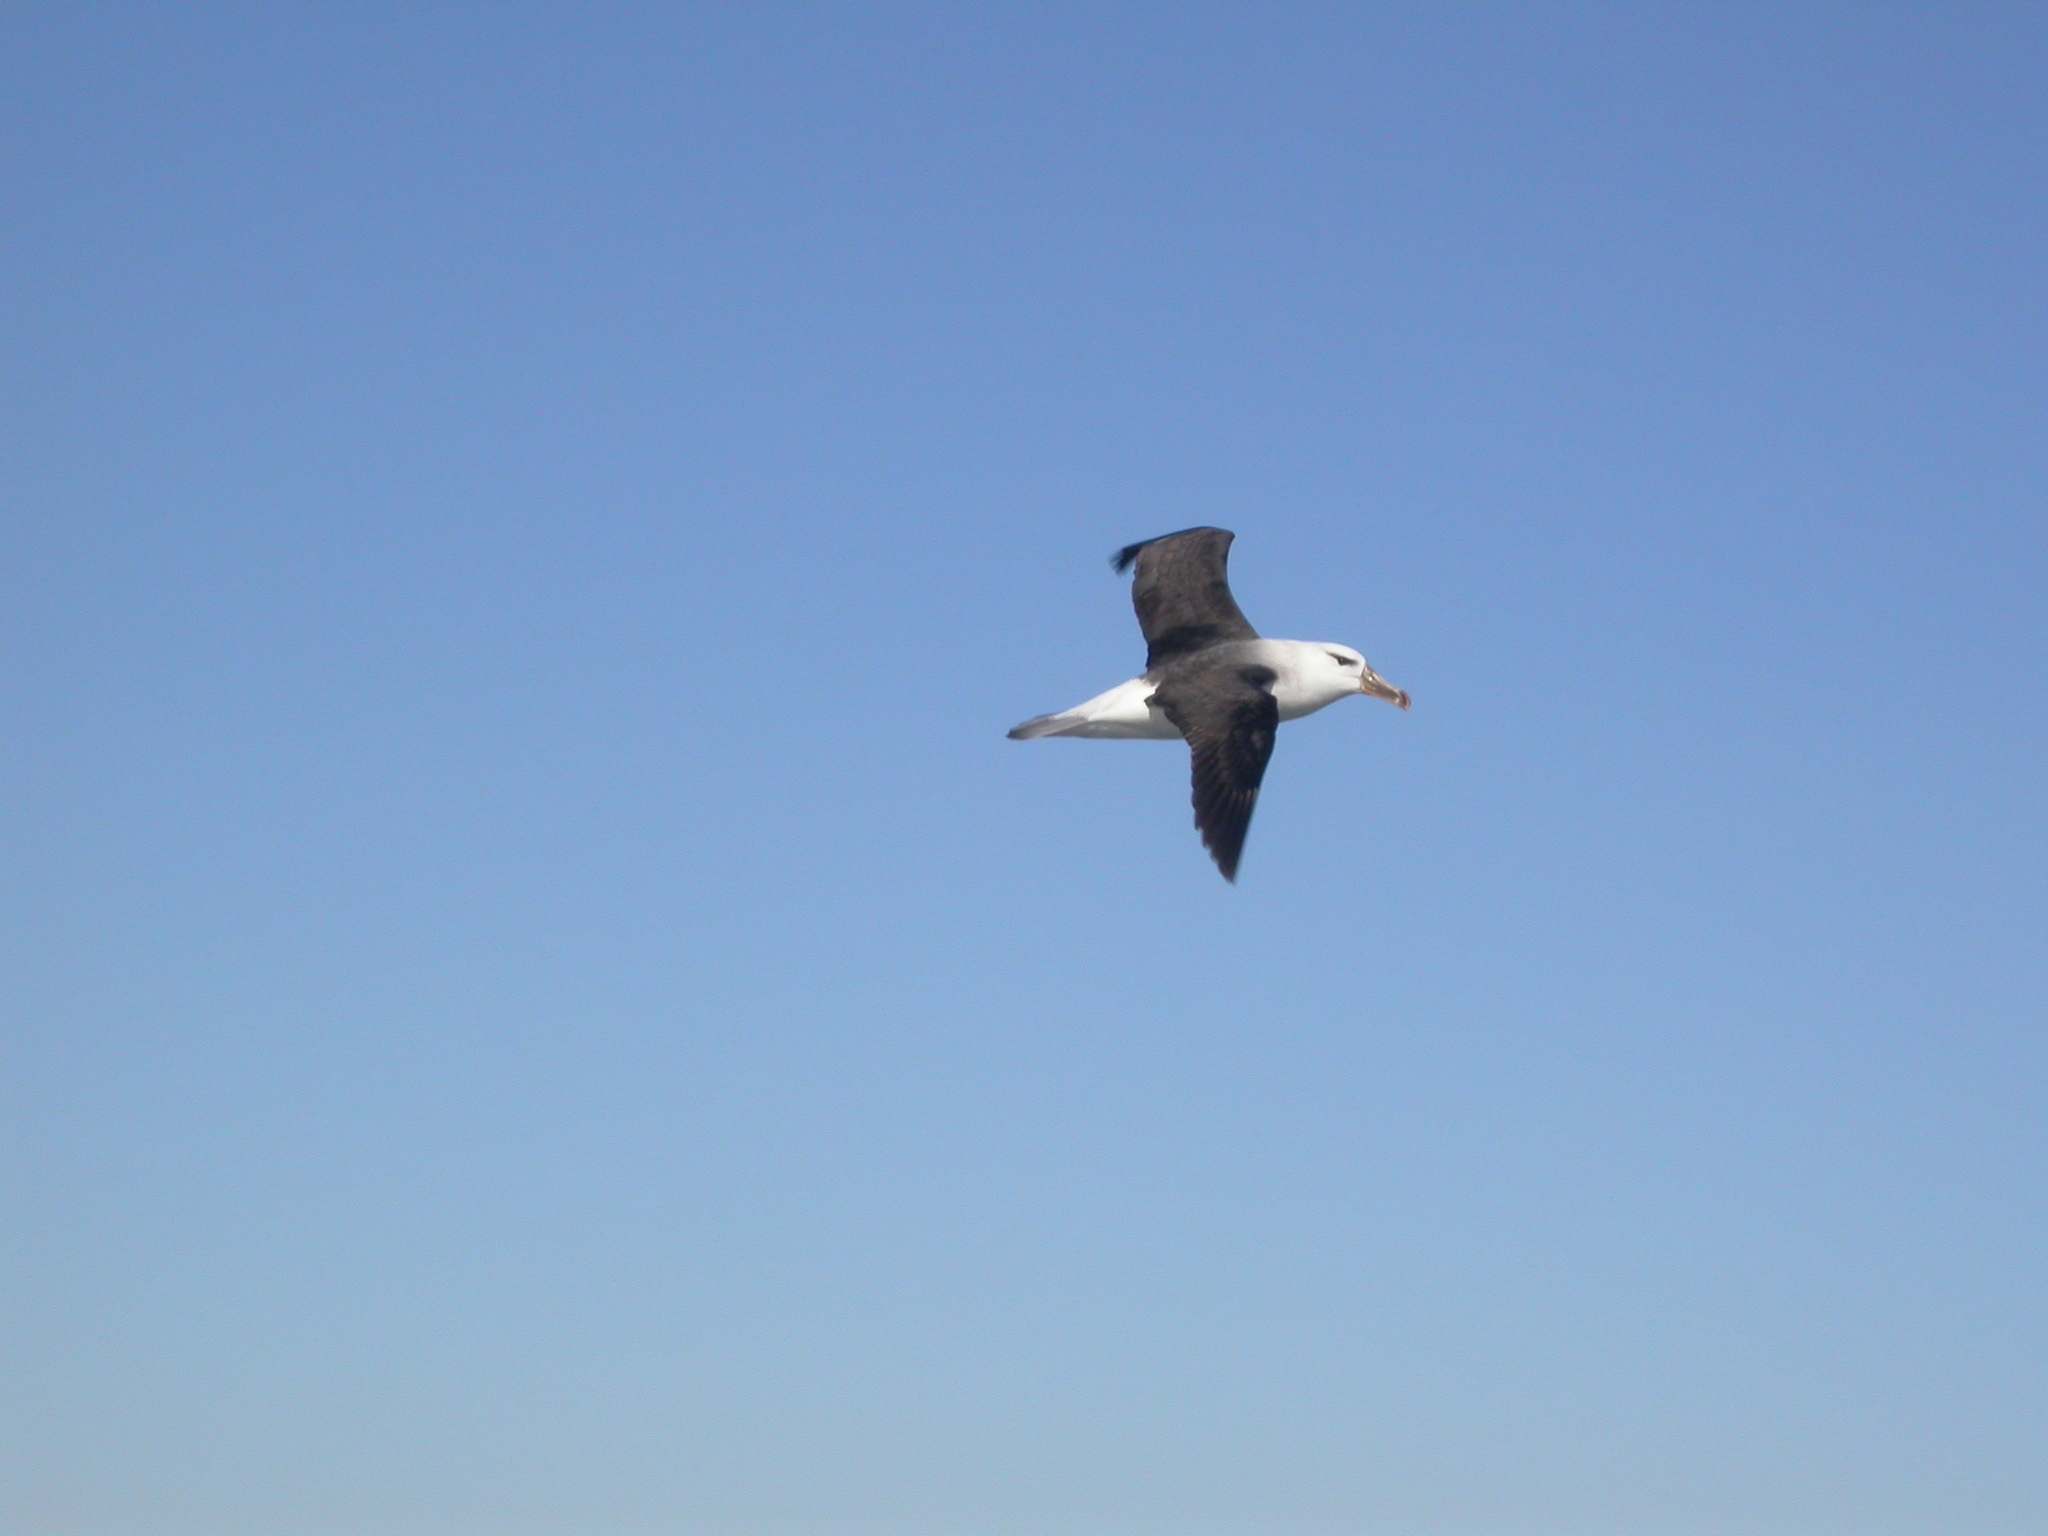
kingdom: Animalia
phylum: Chordata
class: Aves
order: Procellariiformes
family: Diomedeidae
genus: Thalassarche
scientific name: Thalassarche melanophris
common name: Black-browed albatross
